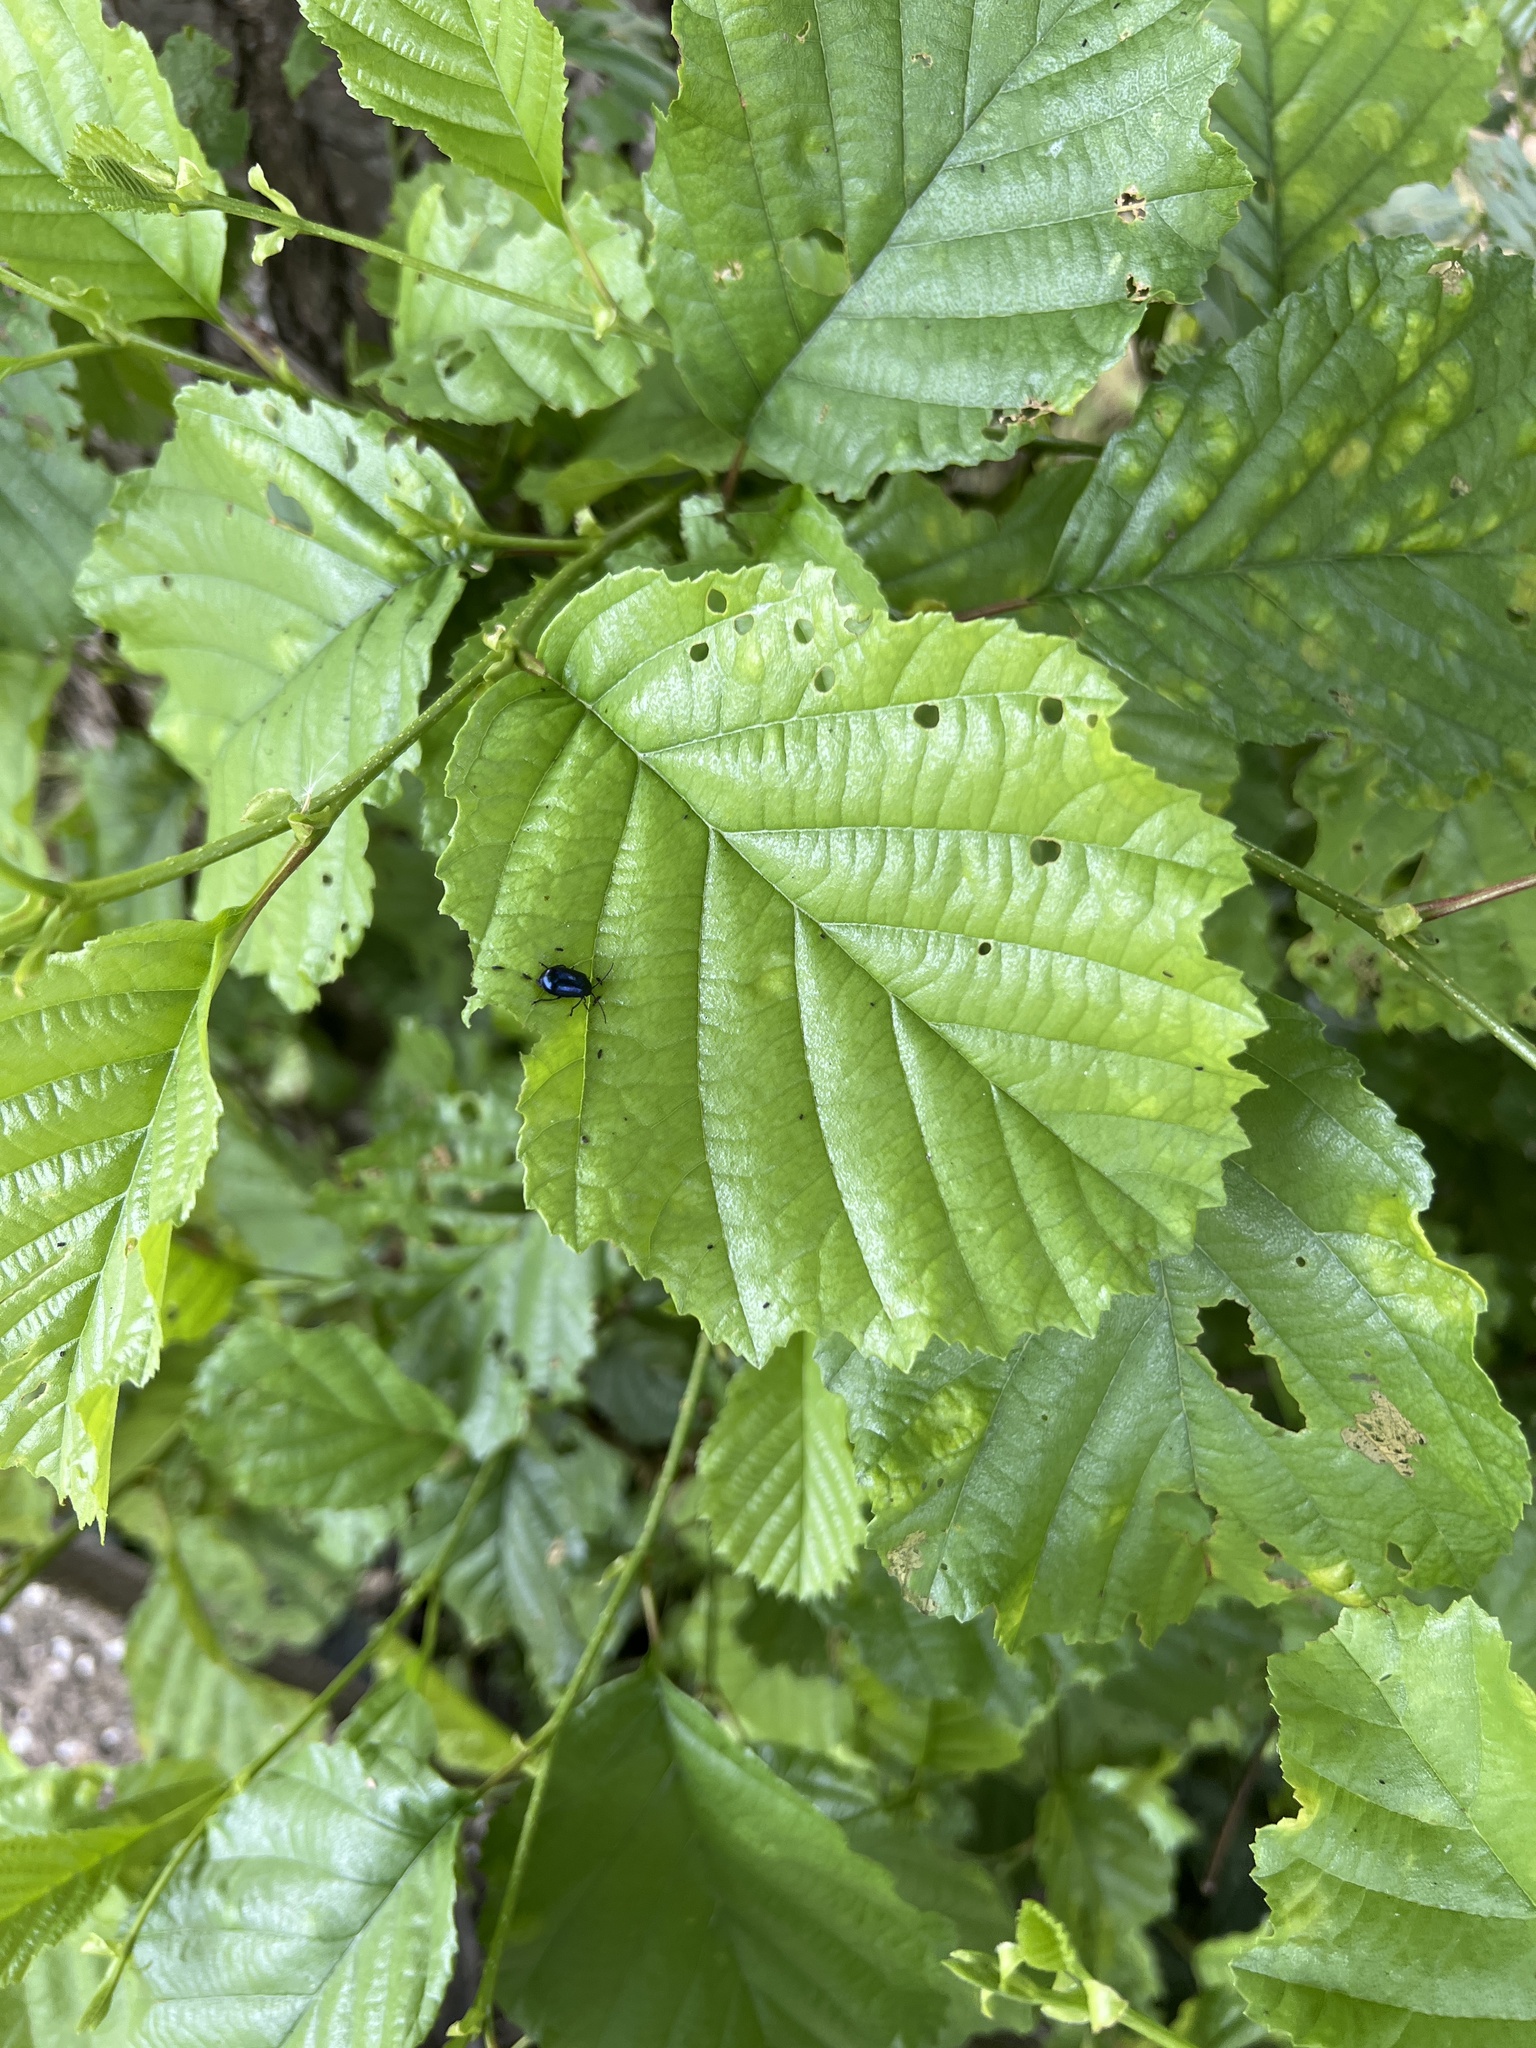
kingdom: Animalia
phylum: Arthropoda
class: Insecta
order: Coleoptera
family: Chrysomelidae
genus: Agelastica
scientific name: Agelastica alni
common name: Alder leaf beetle
